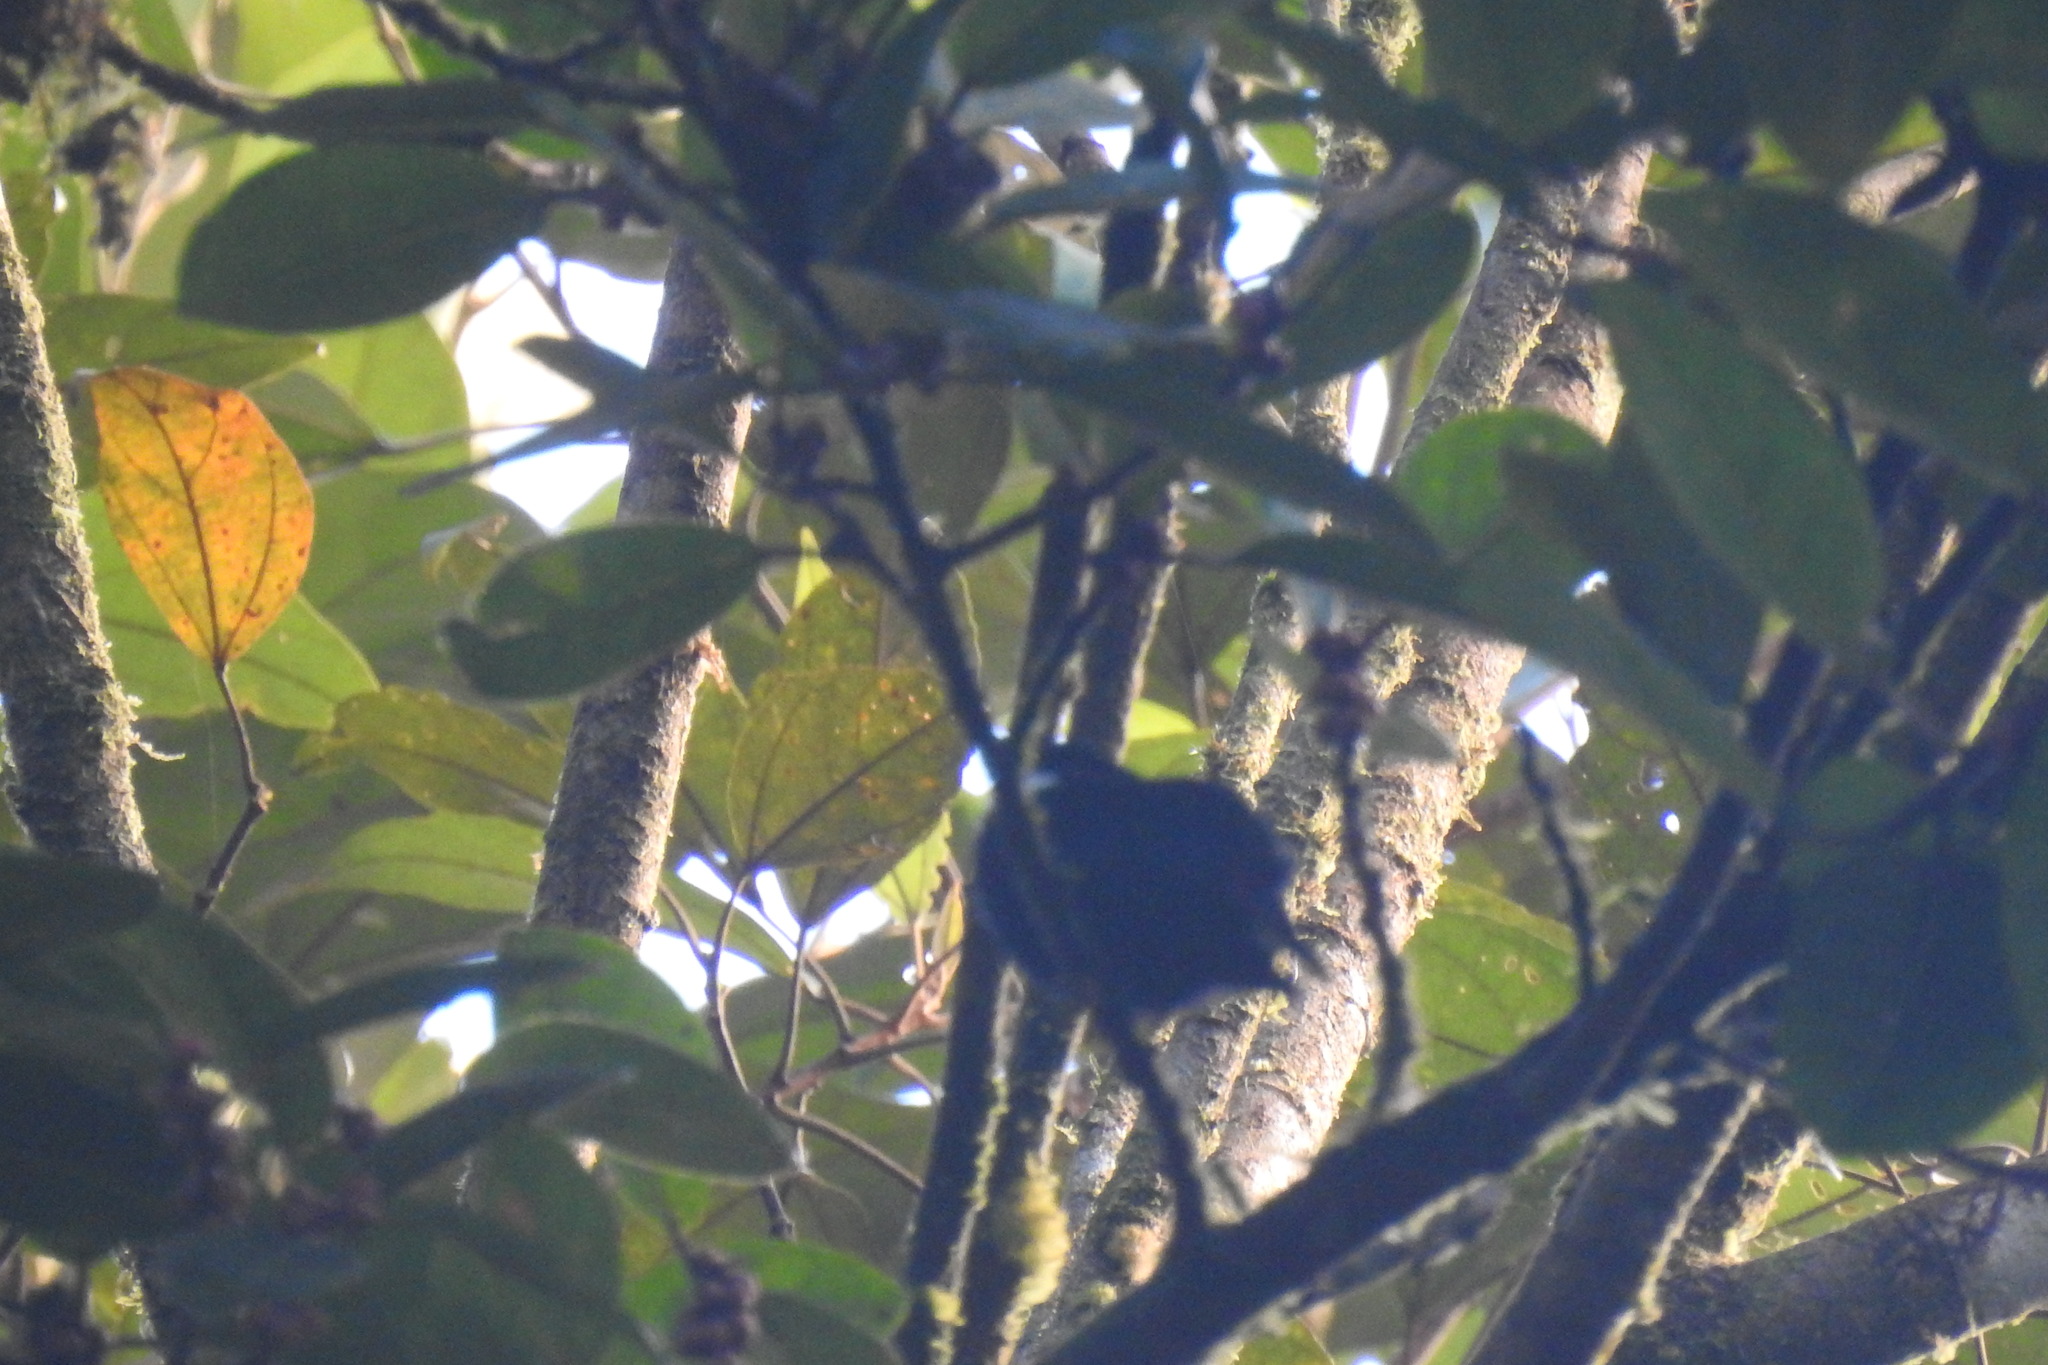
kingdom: Animalia
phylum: Chordata
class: Aves
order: Passeriformes
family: Pipridae
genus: Corapipo
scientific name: Corapipo altera
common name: White-ruffed manakin
